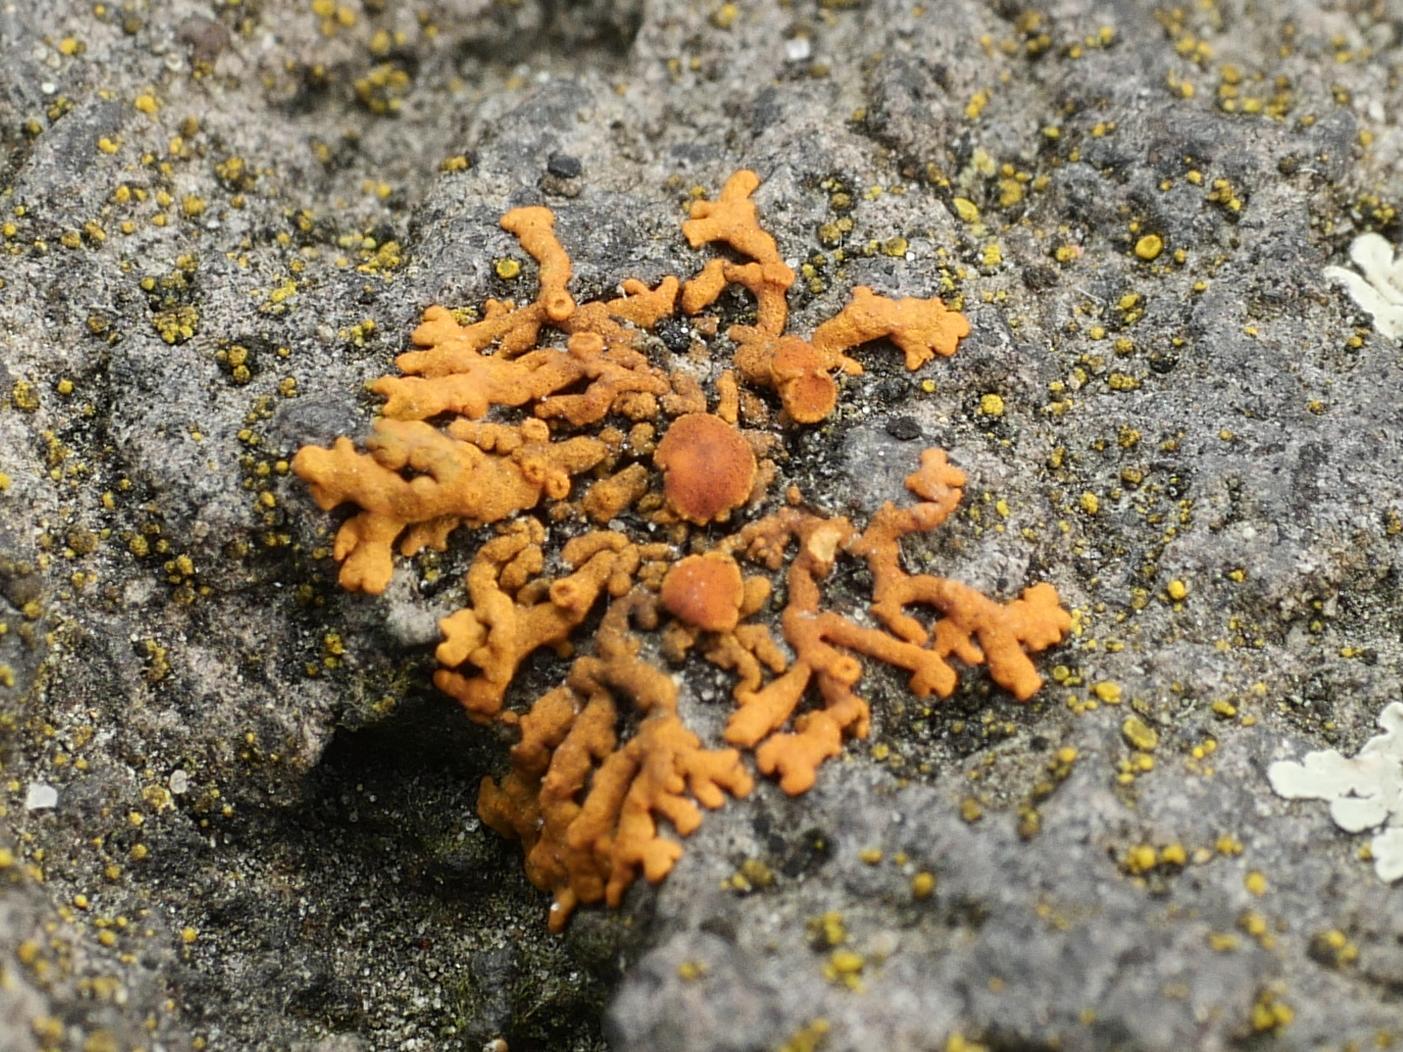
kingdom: Fungi
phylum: Ascomycota
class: Lecanoromycetes
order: Teloschistales
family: Teloschistaceae
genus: Xanthoria
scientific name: Xanthoria elegans
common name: Elegant sunburst lichen
